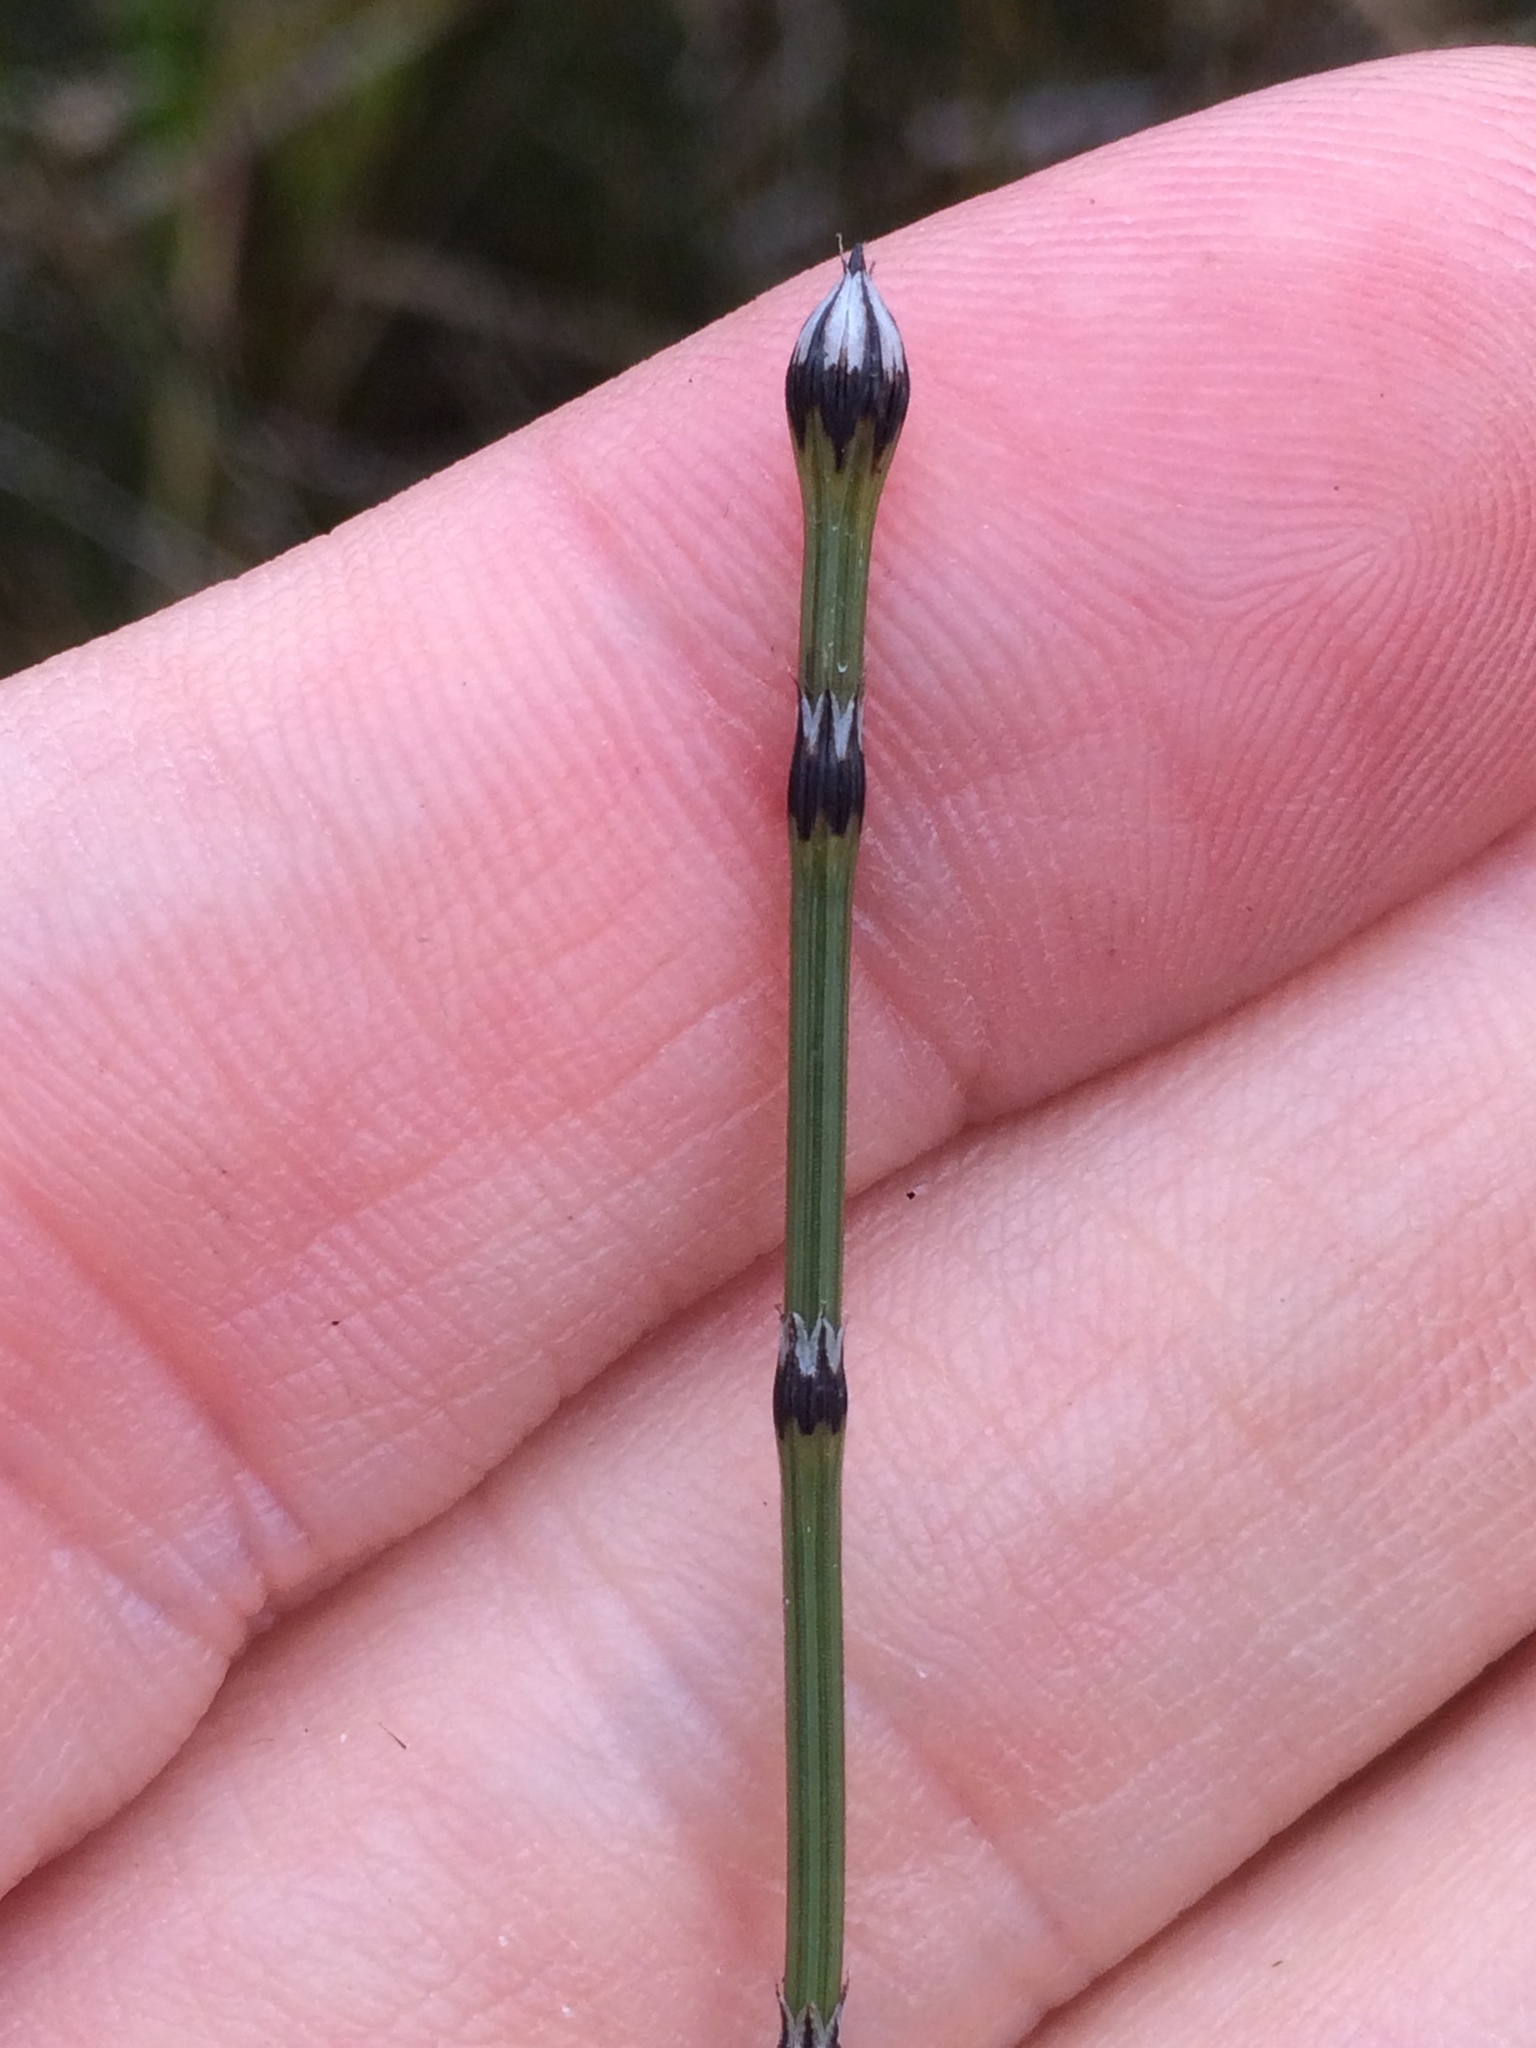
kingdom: Plantae
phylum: Tracheophyta
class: Polypodiopsida
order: Equisetales
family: Equisetaceae
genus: Equisetum
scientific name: Equisetum variegatum
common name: Variegated horsetail
